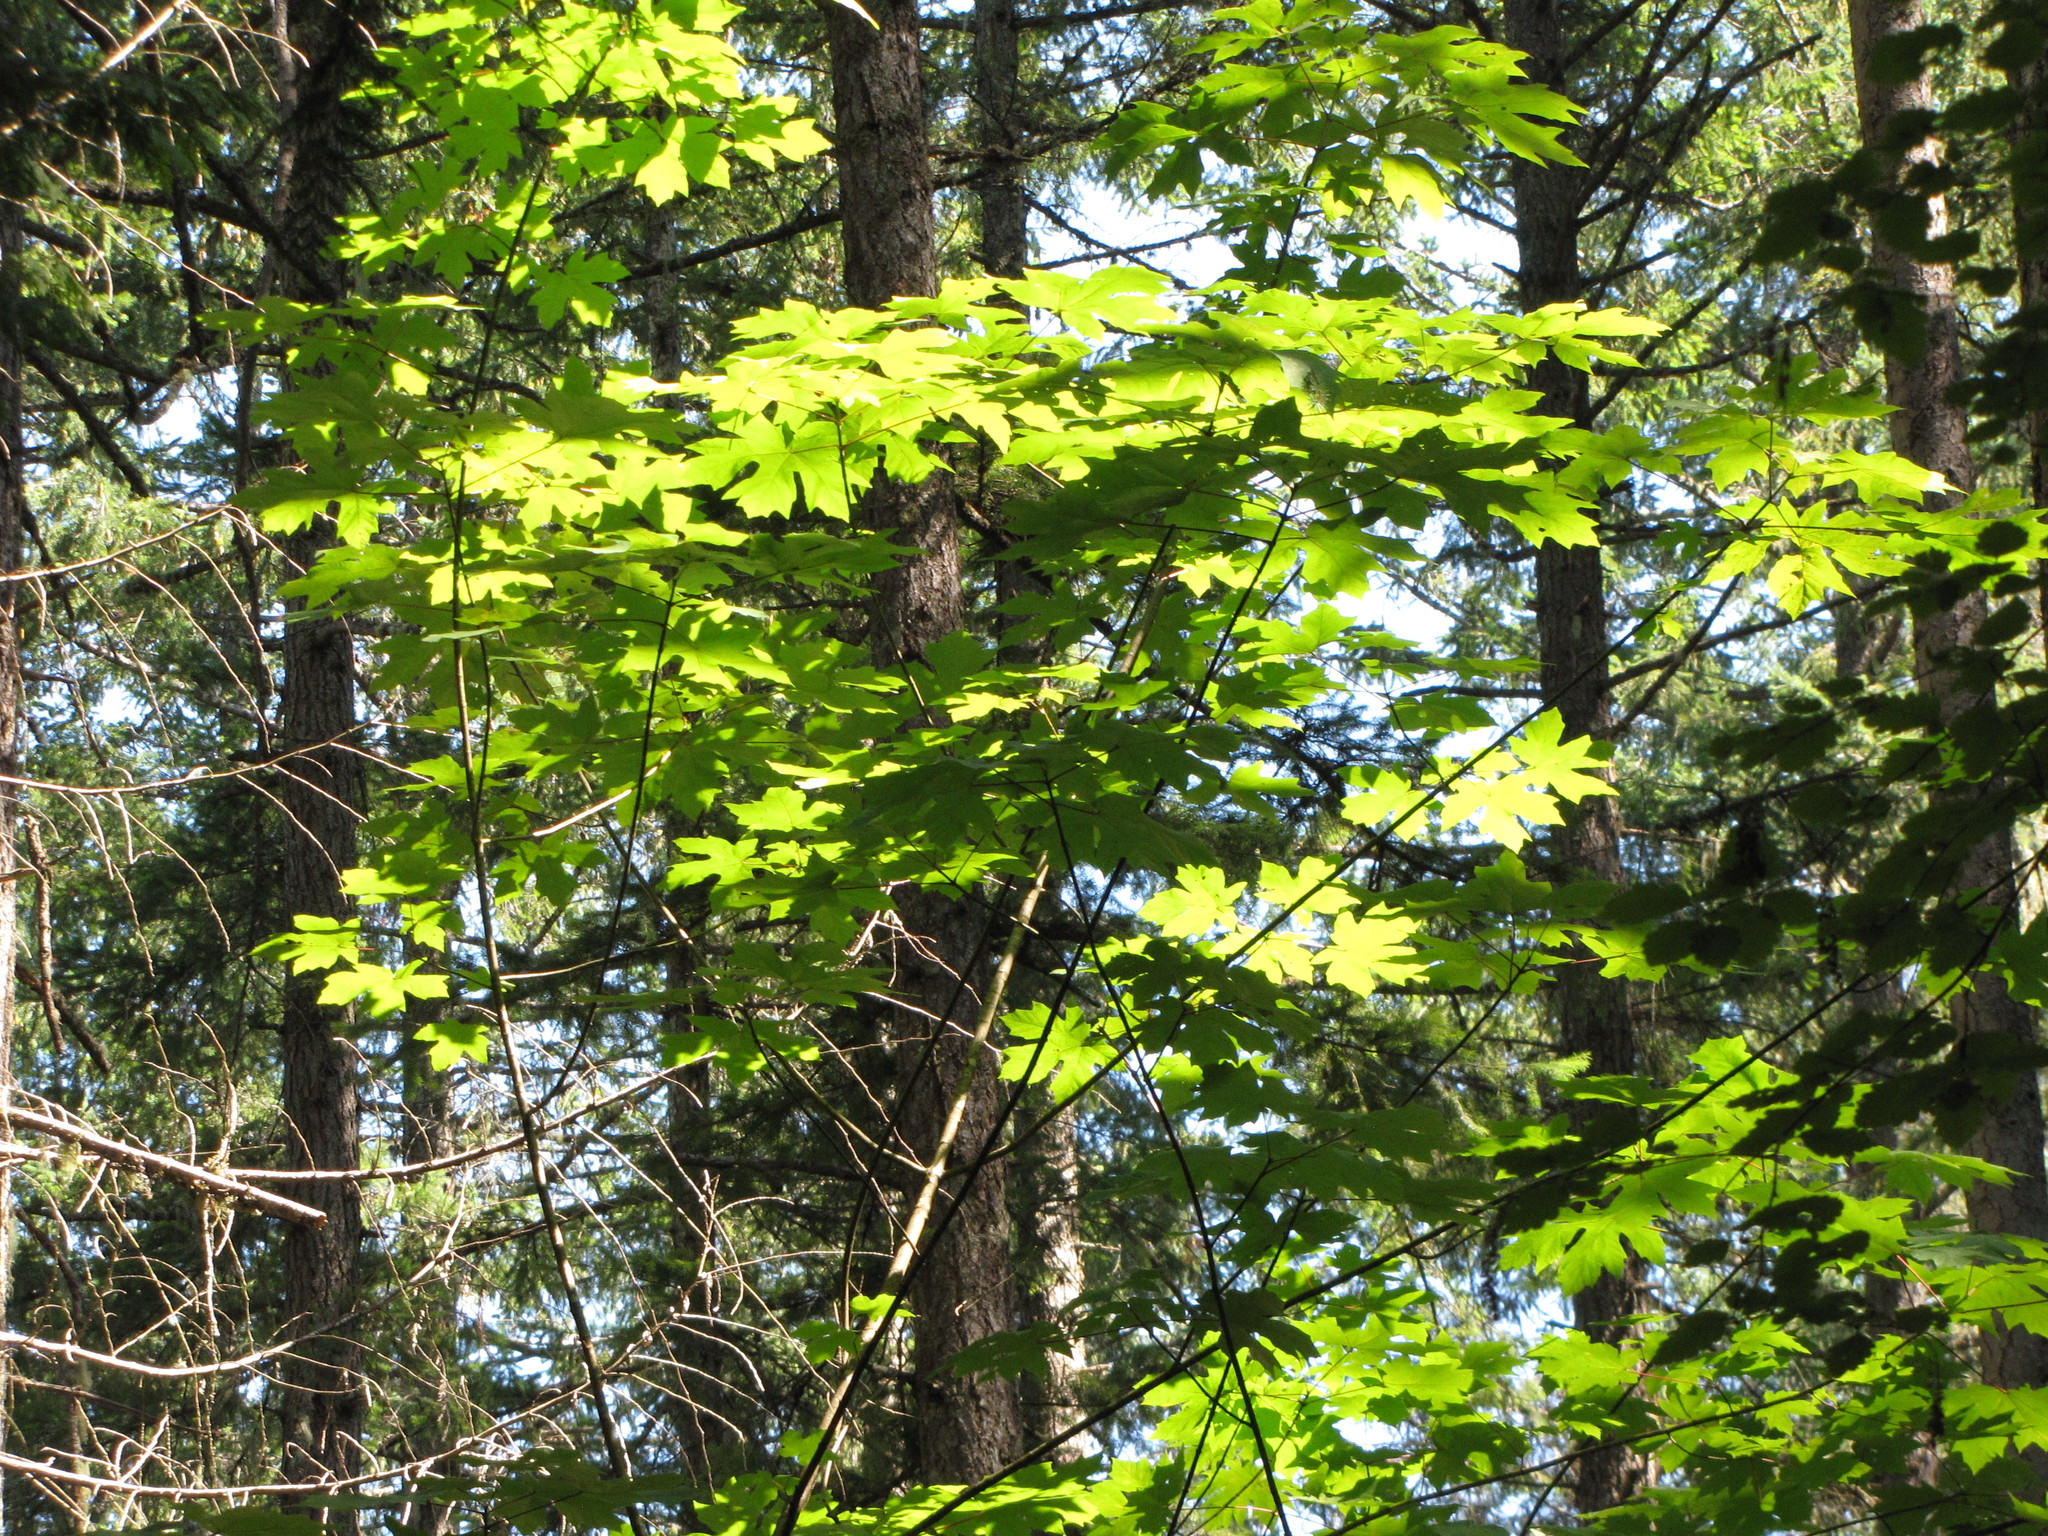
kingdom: Plantae
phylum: Tracheophyta
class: Magnoliopsida
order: Sapindales
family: Sapindaceae
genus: Acer
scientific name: Acer macrophyllum
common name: Oregon maple
